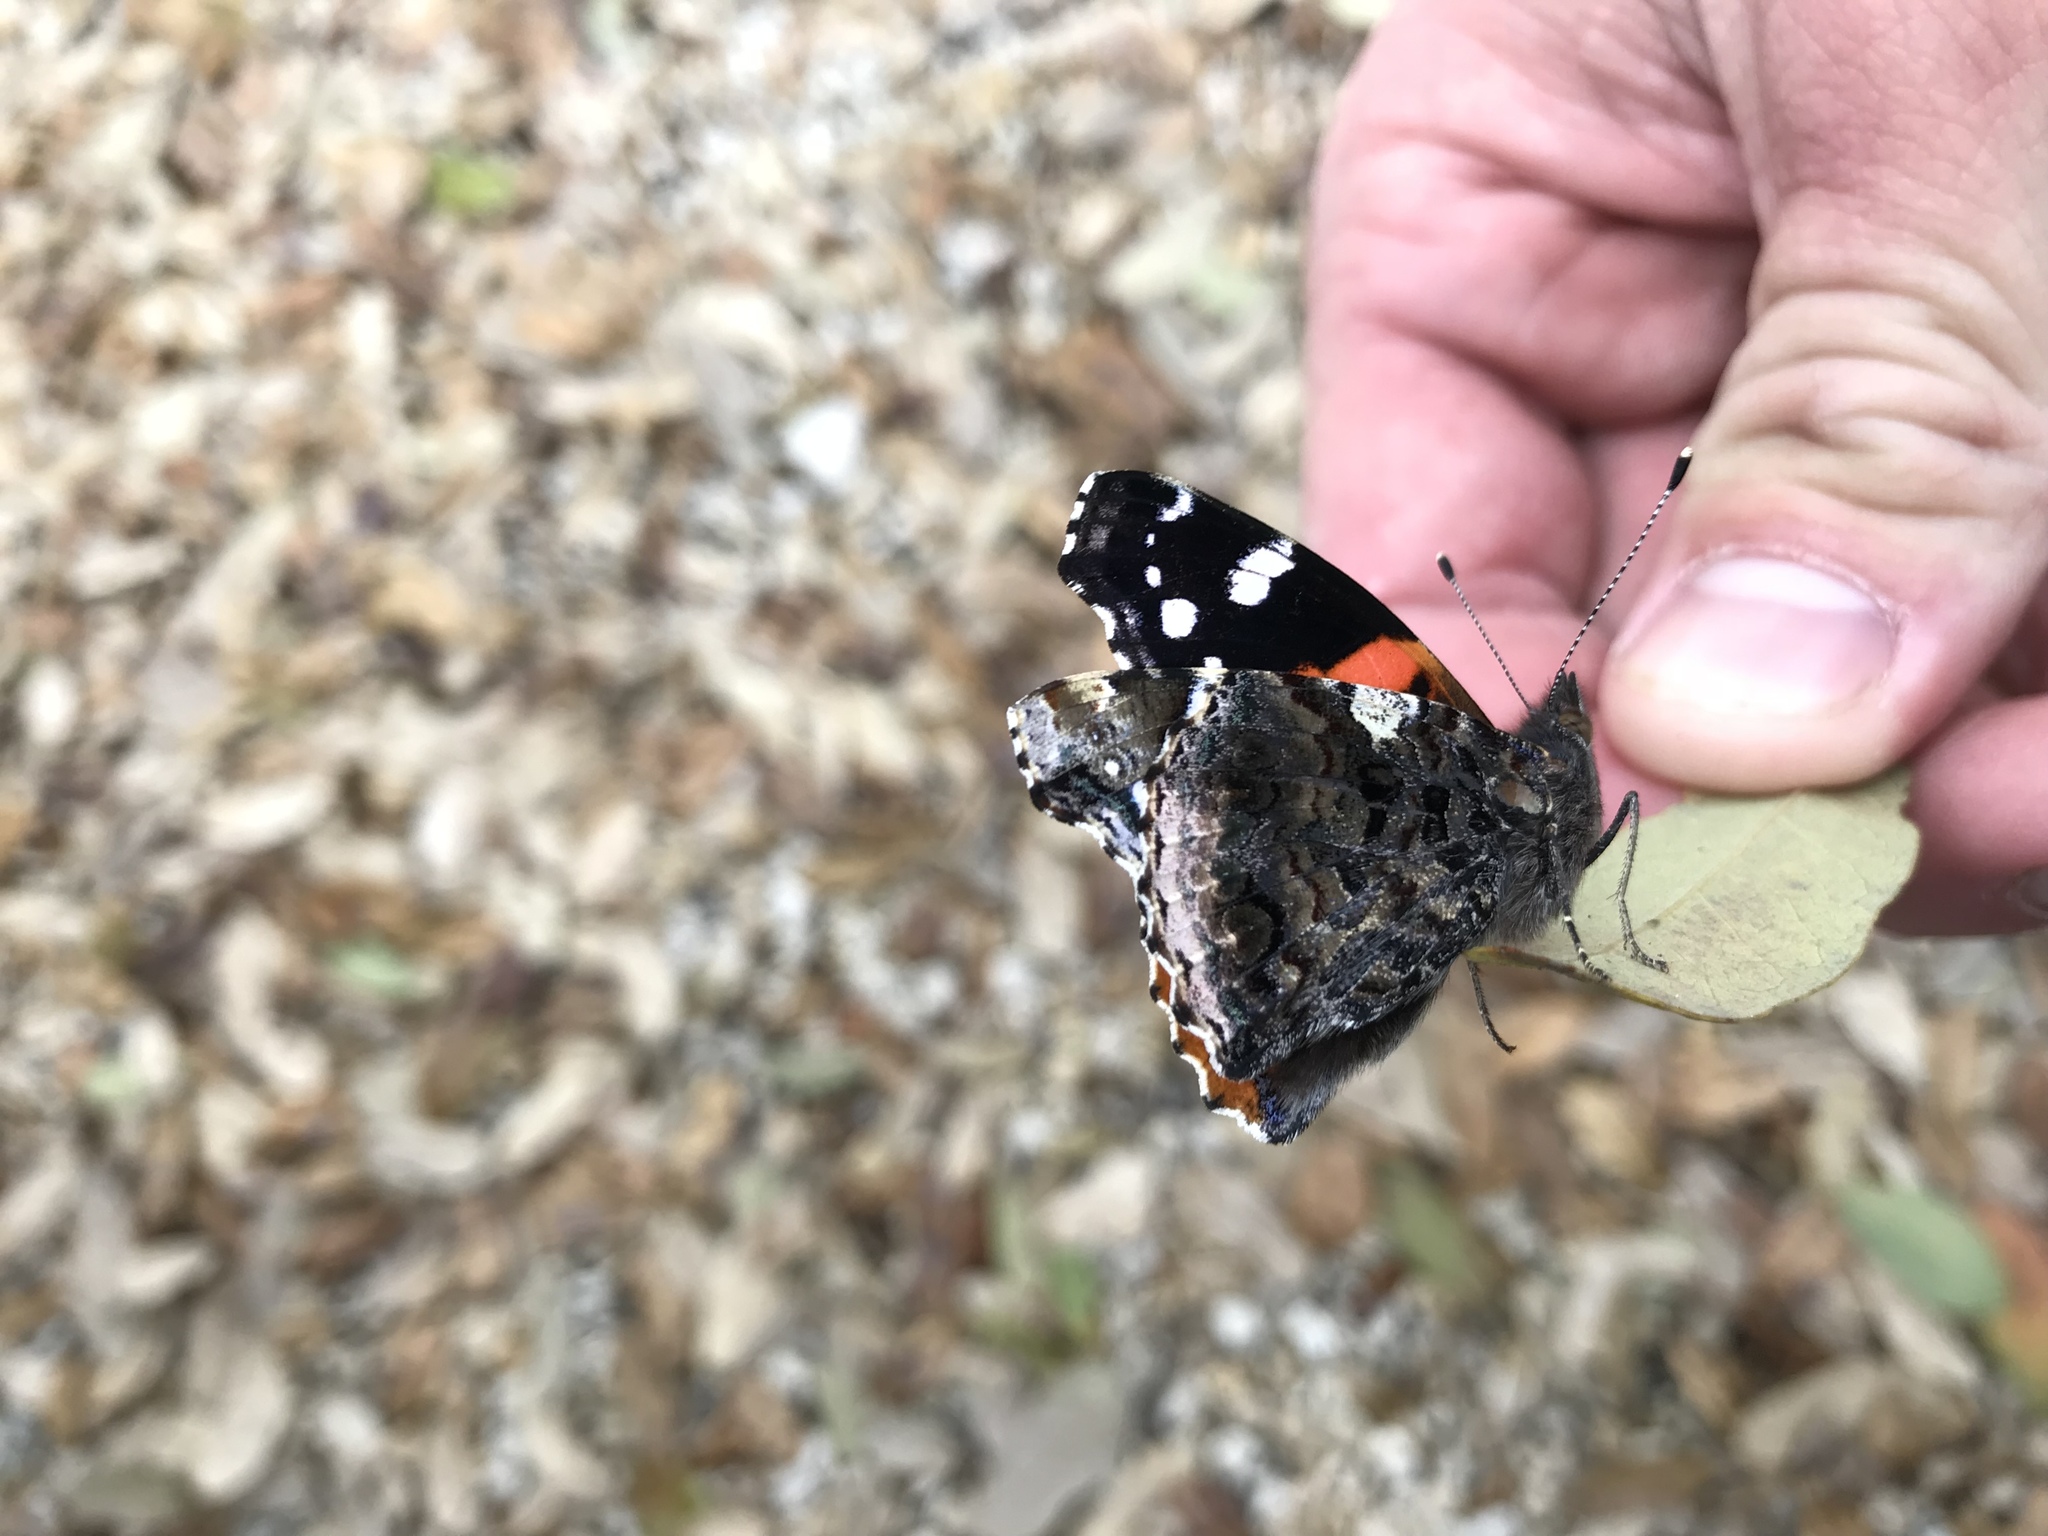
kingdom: Animalia
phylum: Arthropoda
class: Insecta
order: Lepidoptera
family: Nymphalidae
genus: Vanessa
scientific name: Vanessa atalanta
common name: Red admiral
